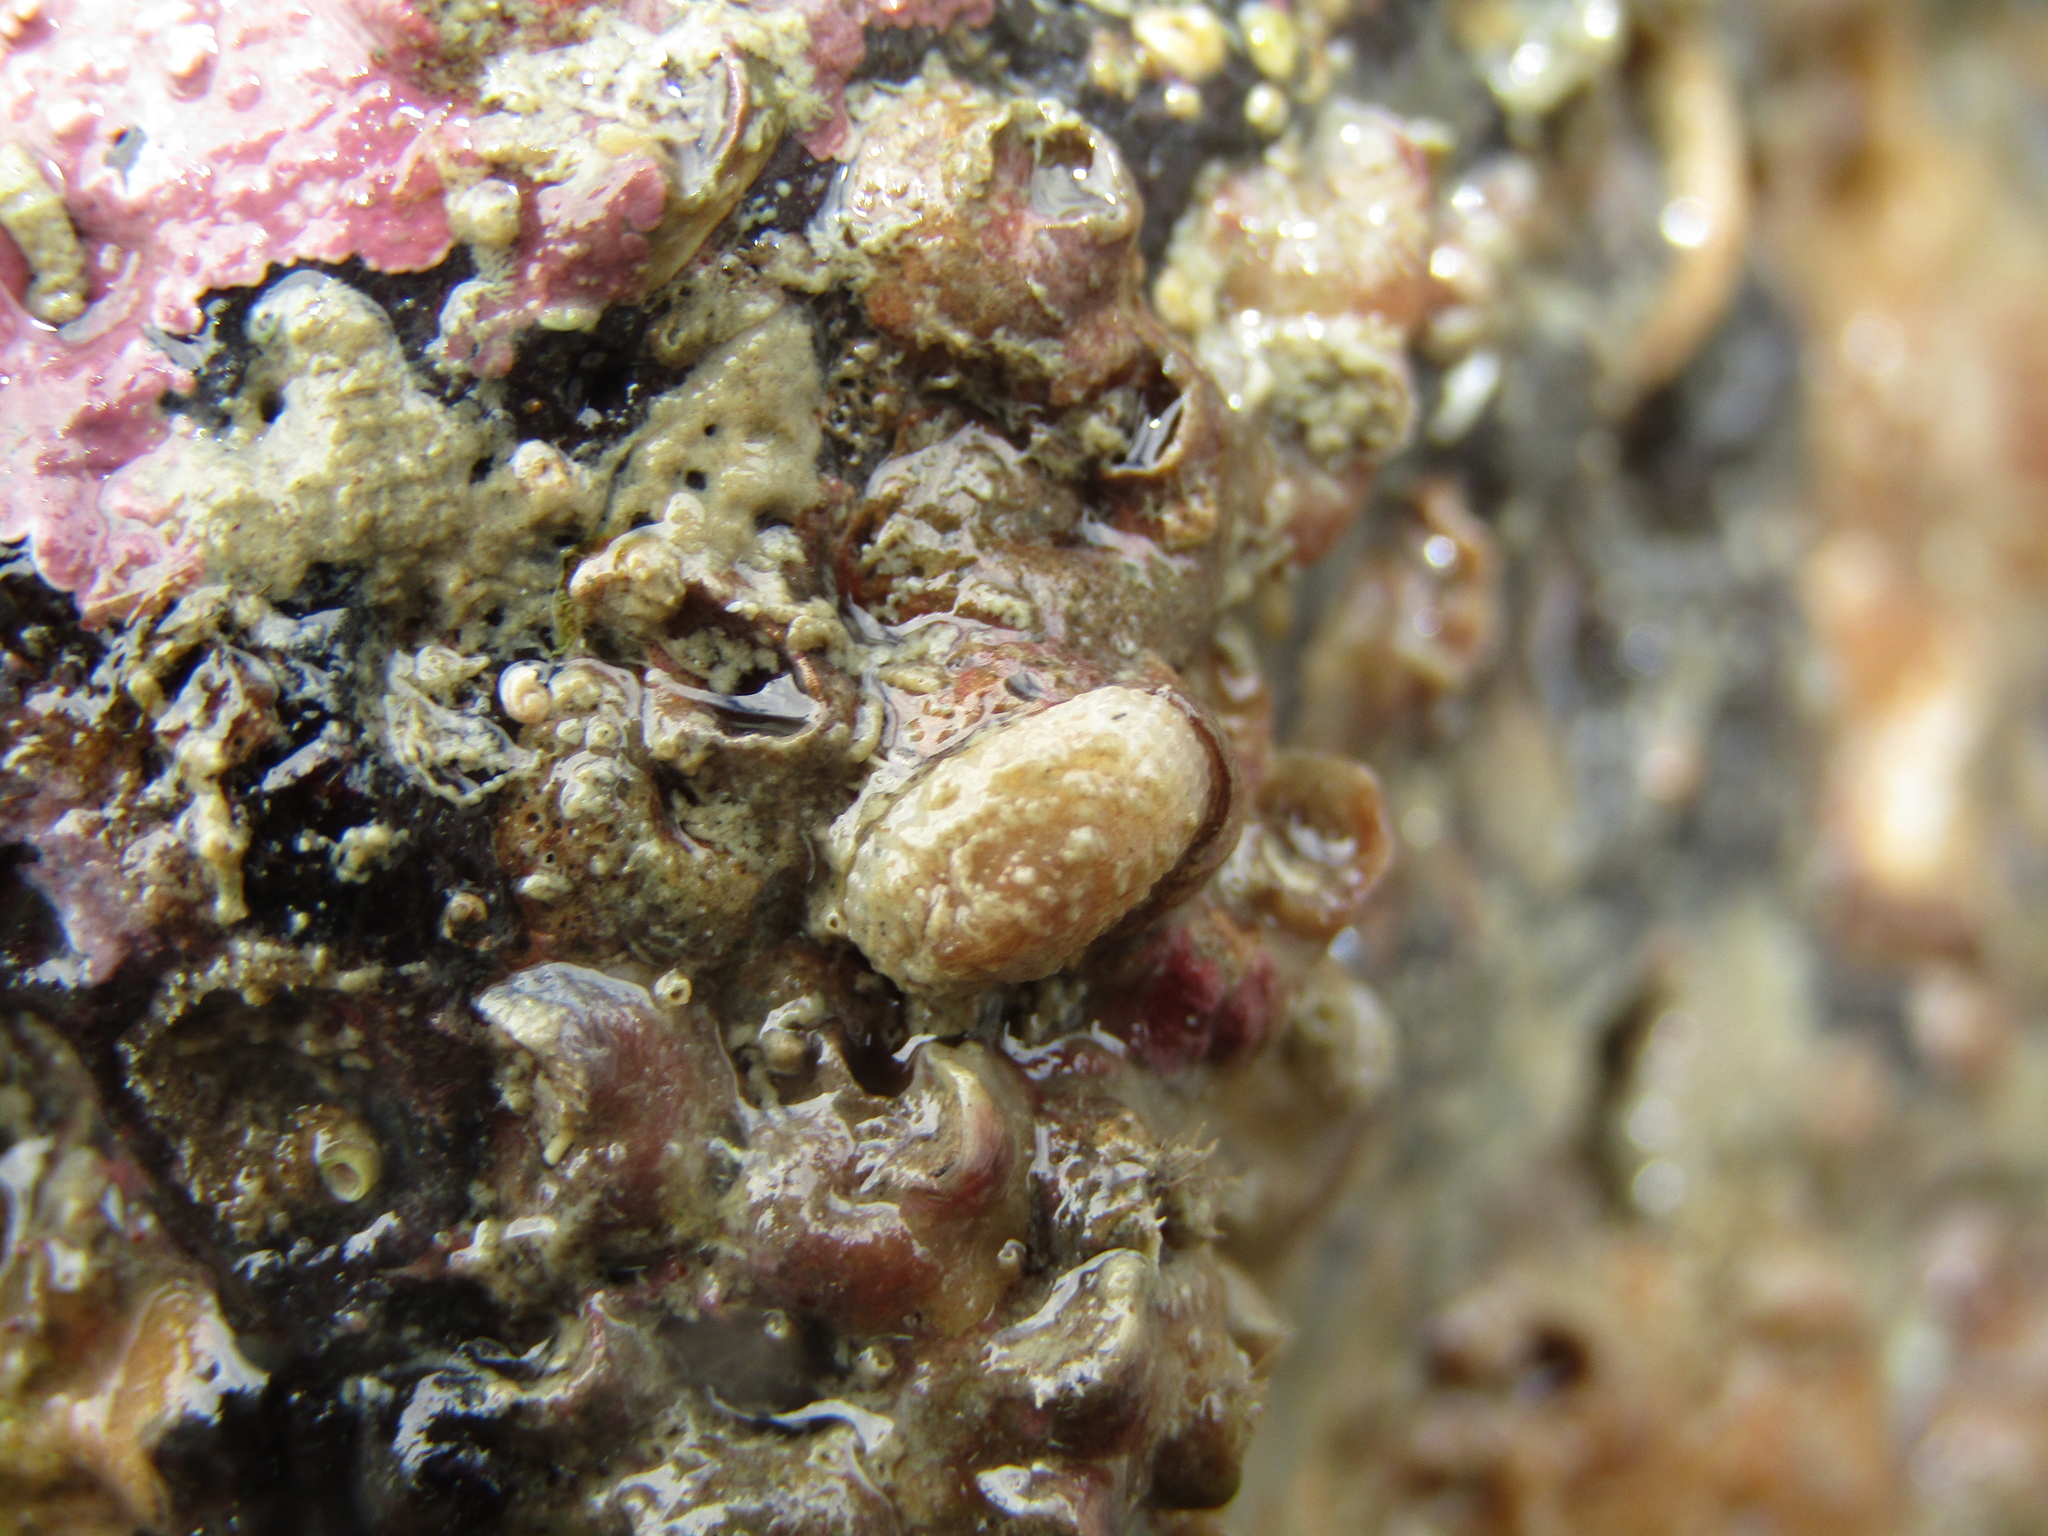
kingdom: Animalia
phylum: Mollusca
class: Gastropoda
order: Lepetellida
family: Fissurellidae
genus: Tugali
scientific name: Tugali suteri
